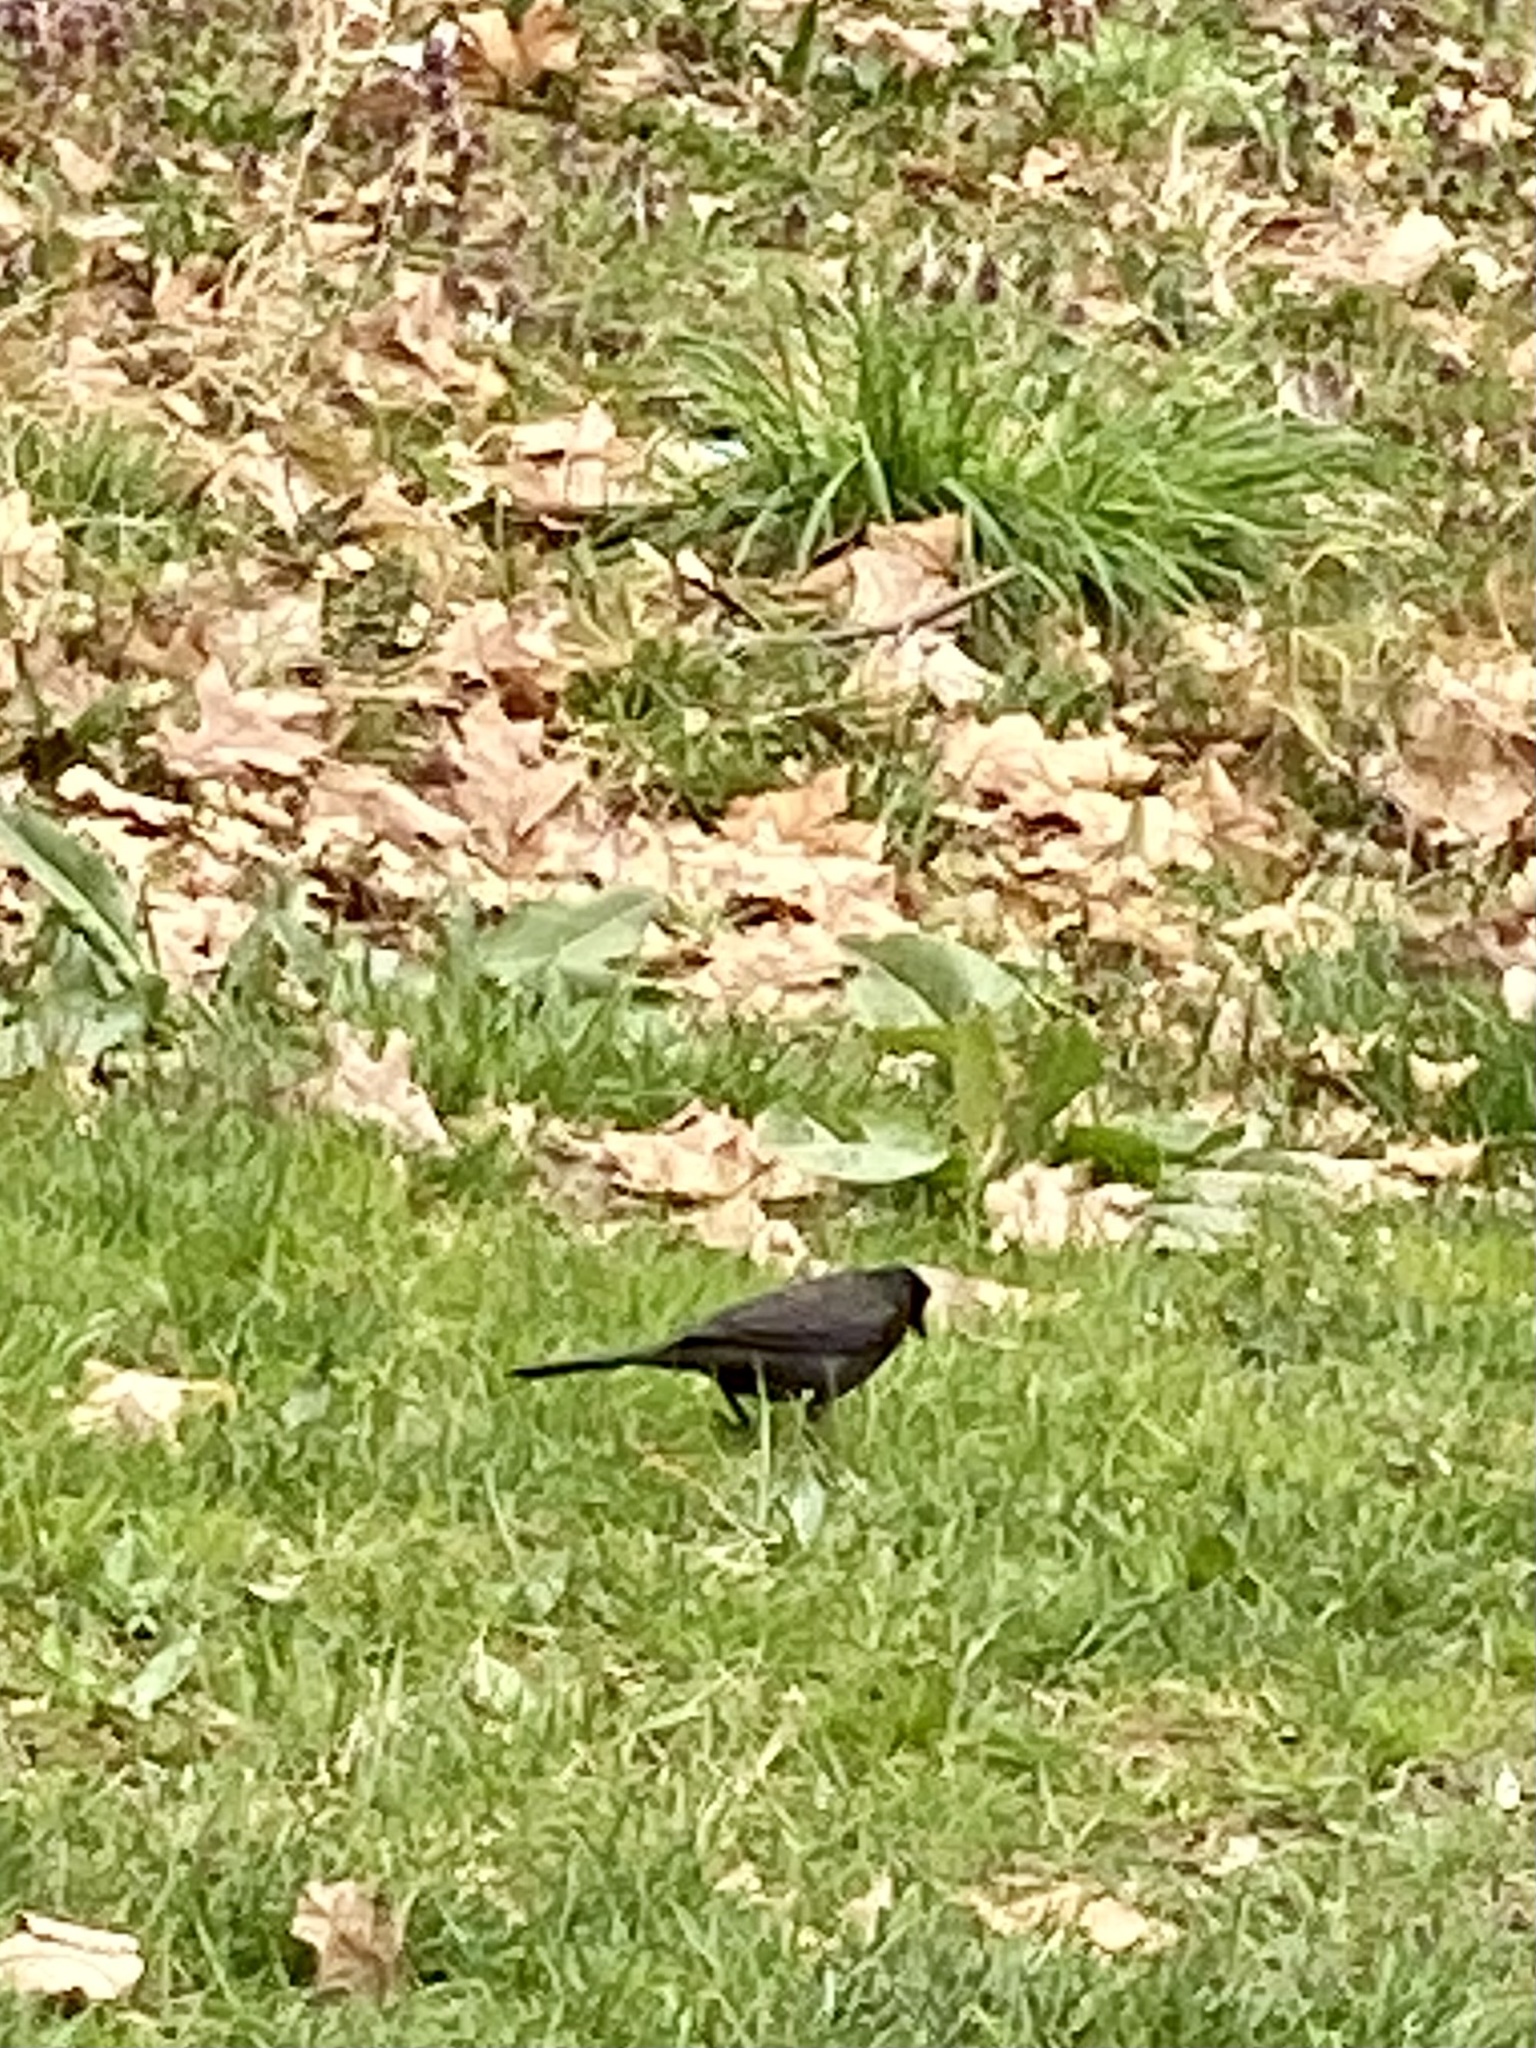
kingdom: Animalia
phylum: Chordata
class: Aves
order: Passeriformes
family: Icteridae
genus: Quiscalus
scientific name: Quiscalus quiscula
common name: Common grackle
